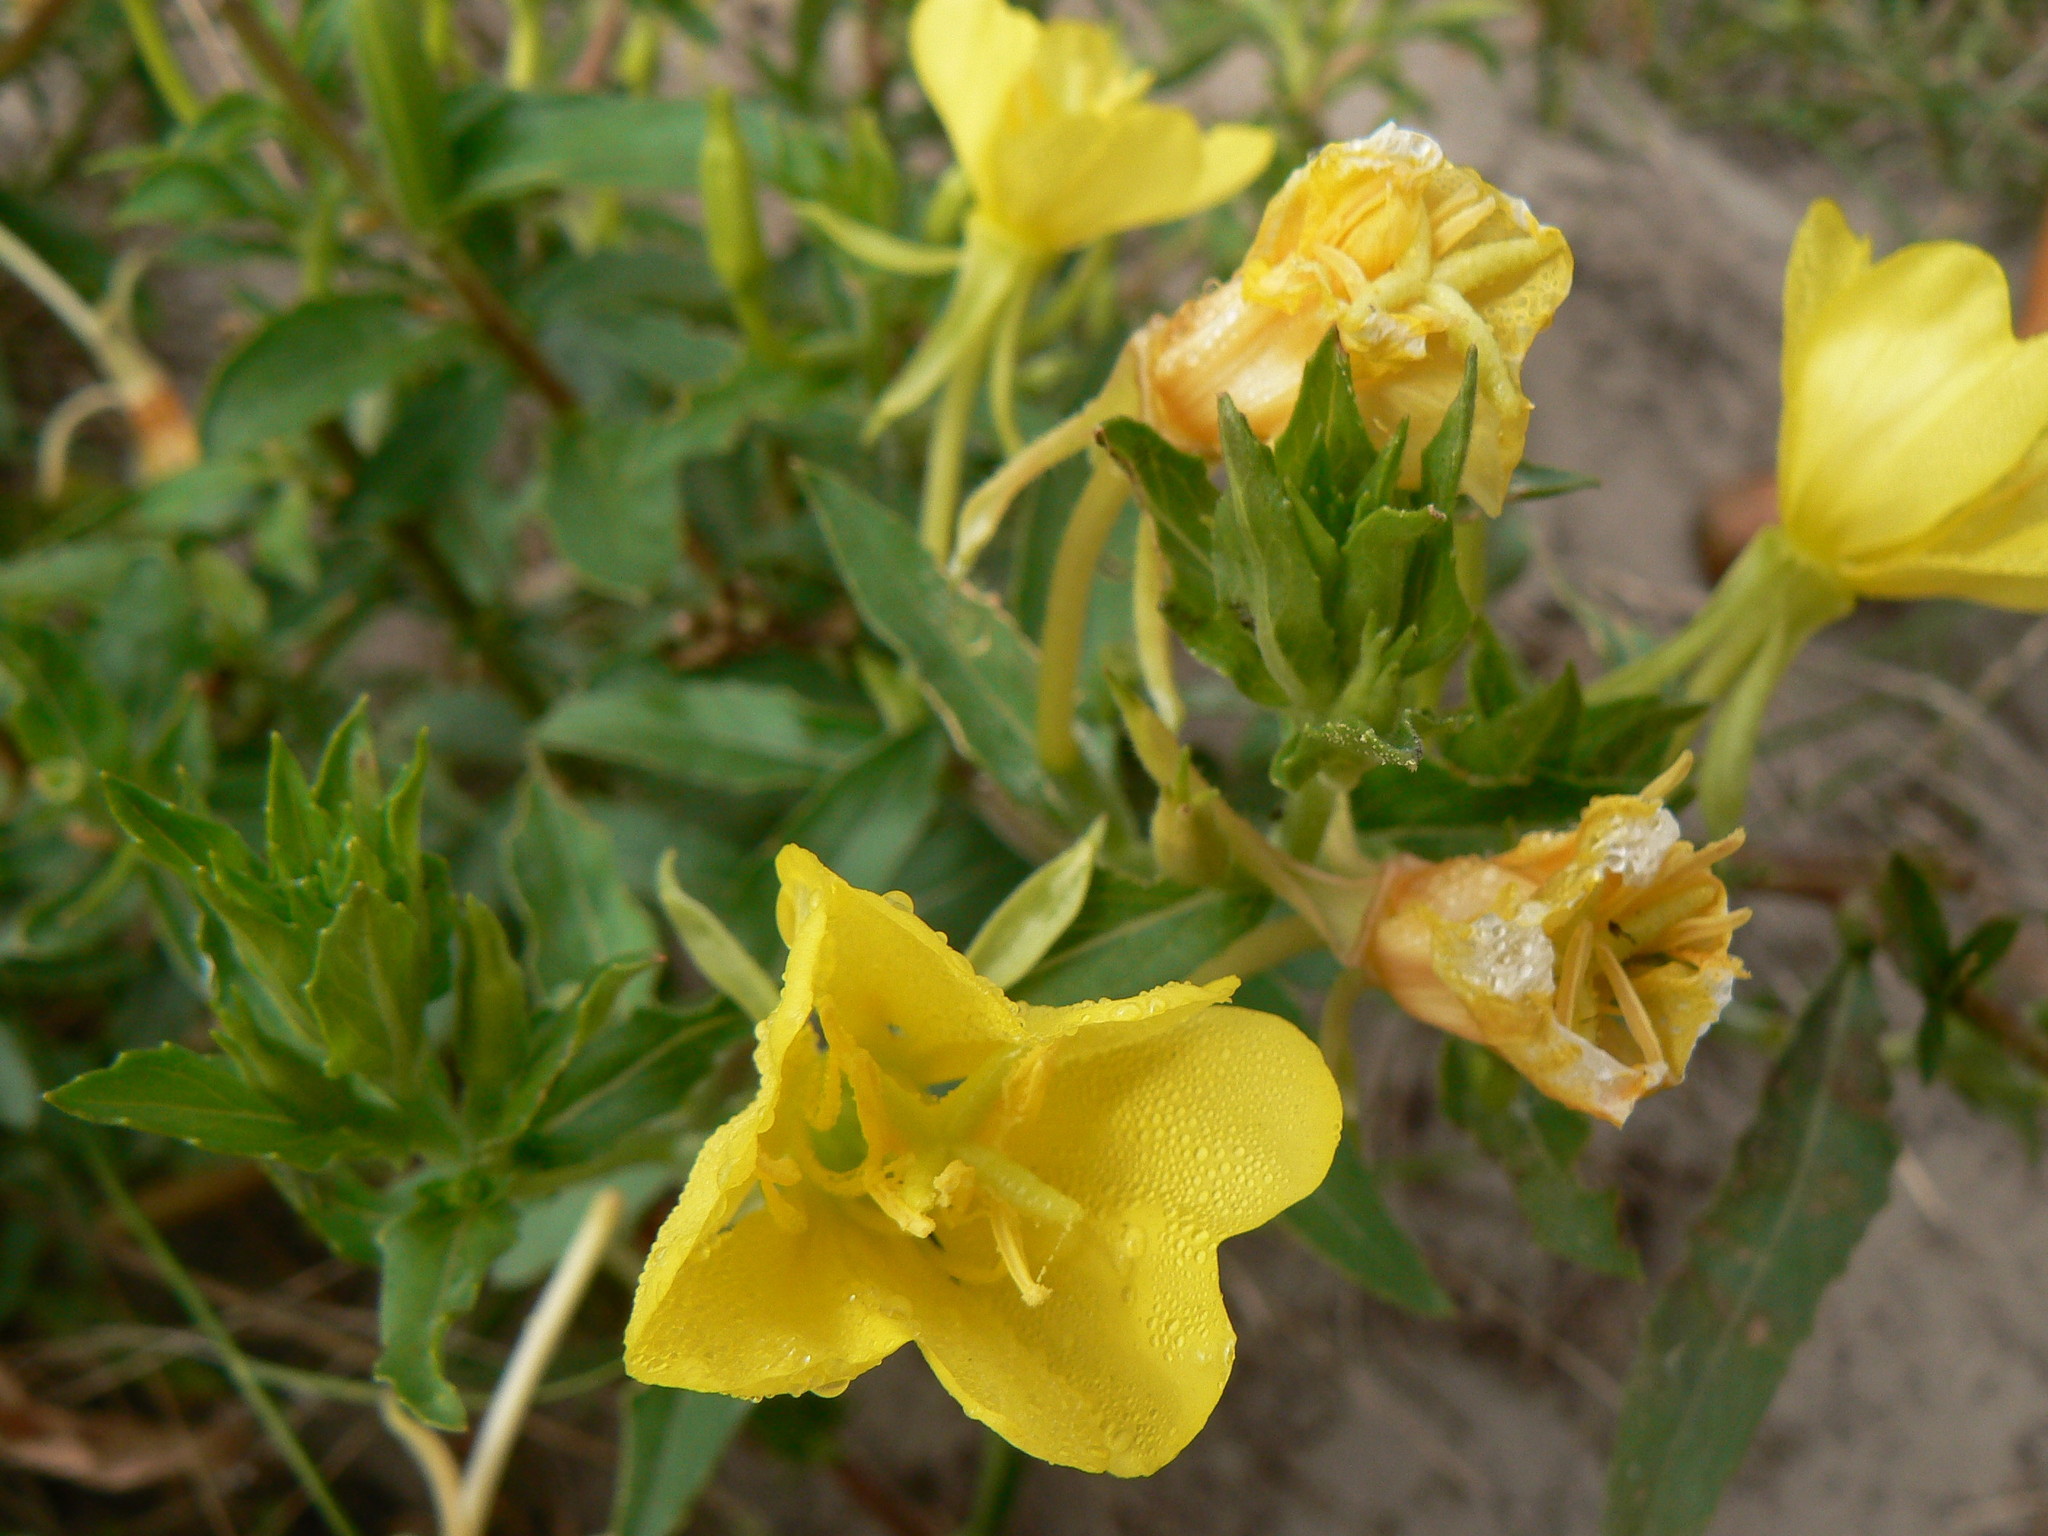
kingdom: Plantae
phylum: Tracheophyta
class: Magnoliopsida
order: Myrtales
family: Onagraceae
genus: Oenothera
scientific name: Oenothera parviflora
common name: Least evening-primrose
